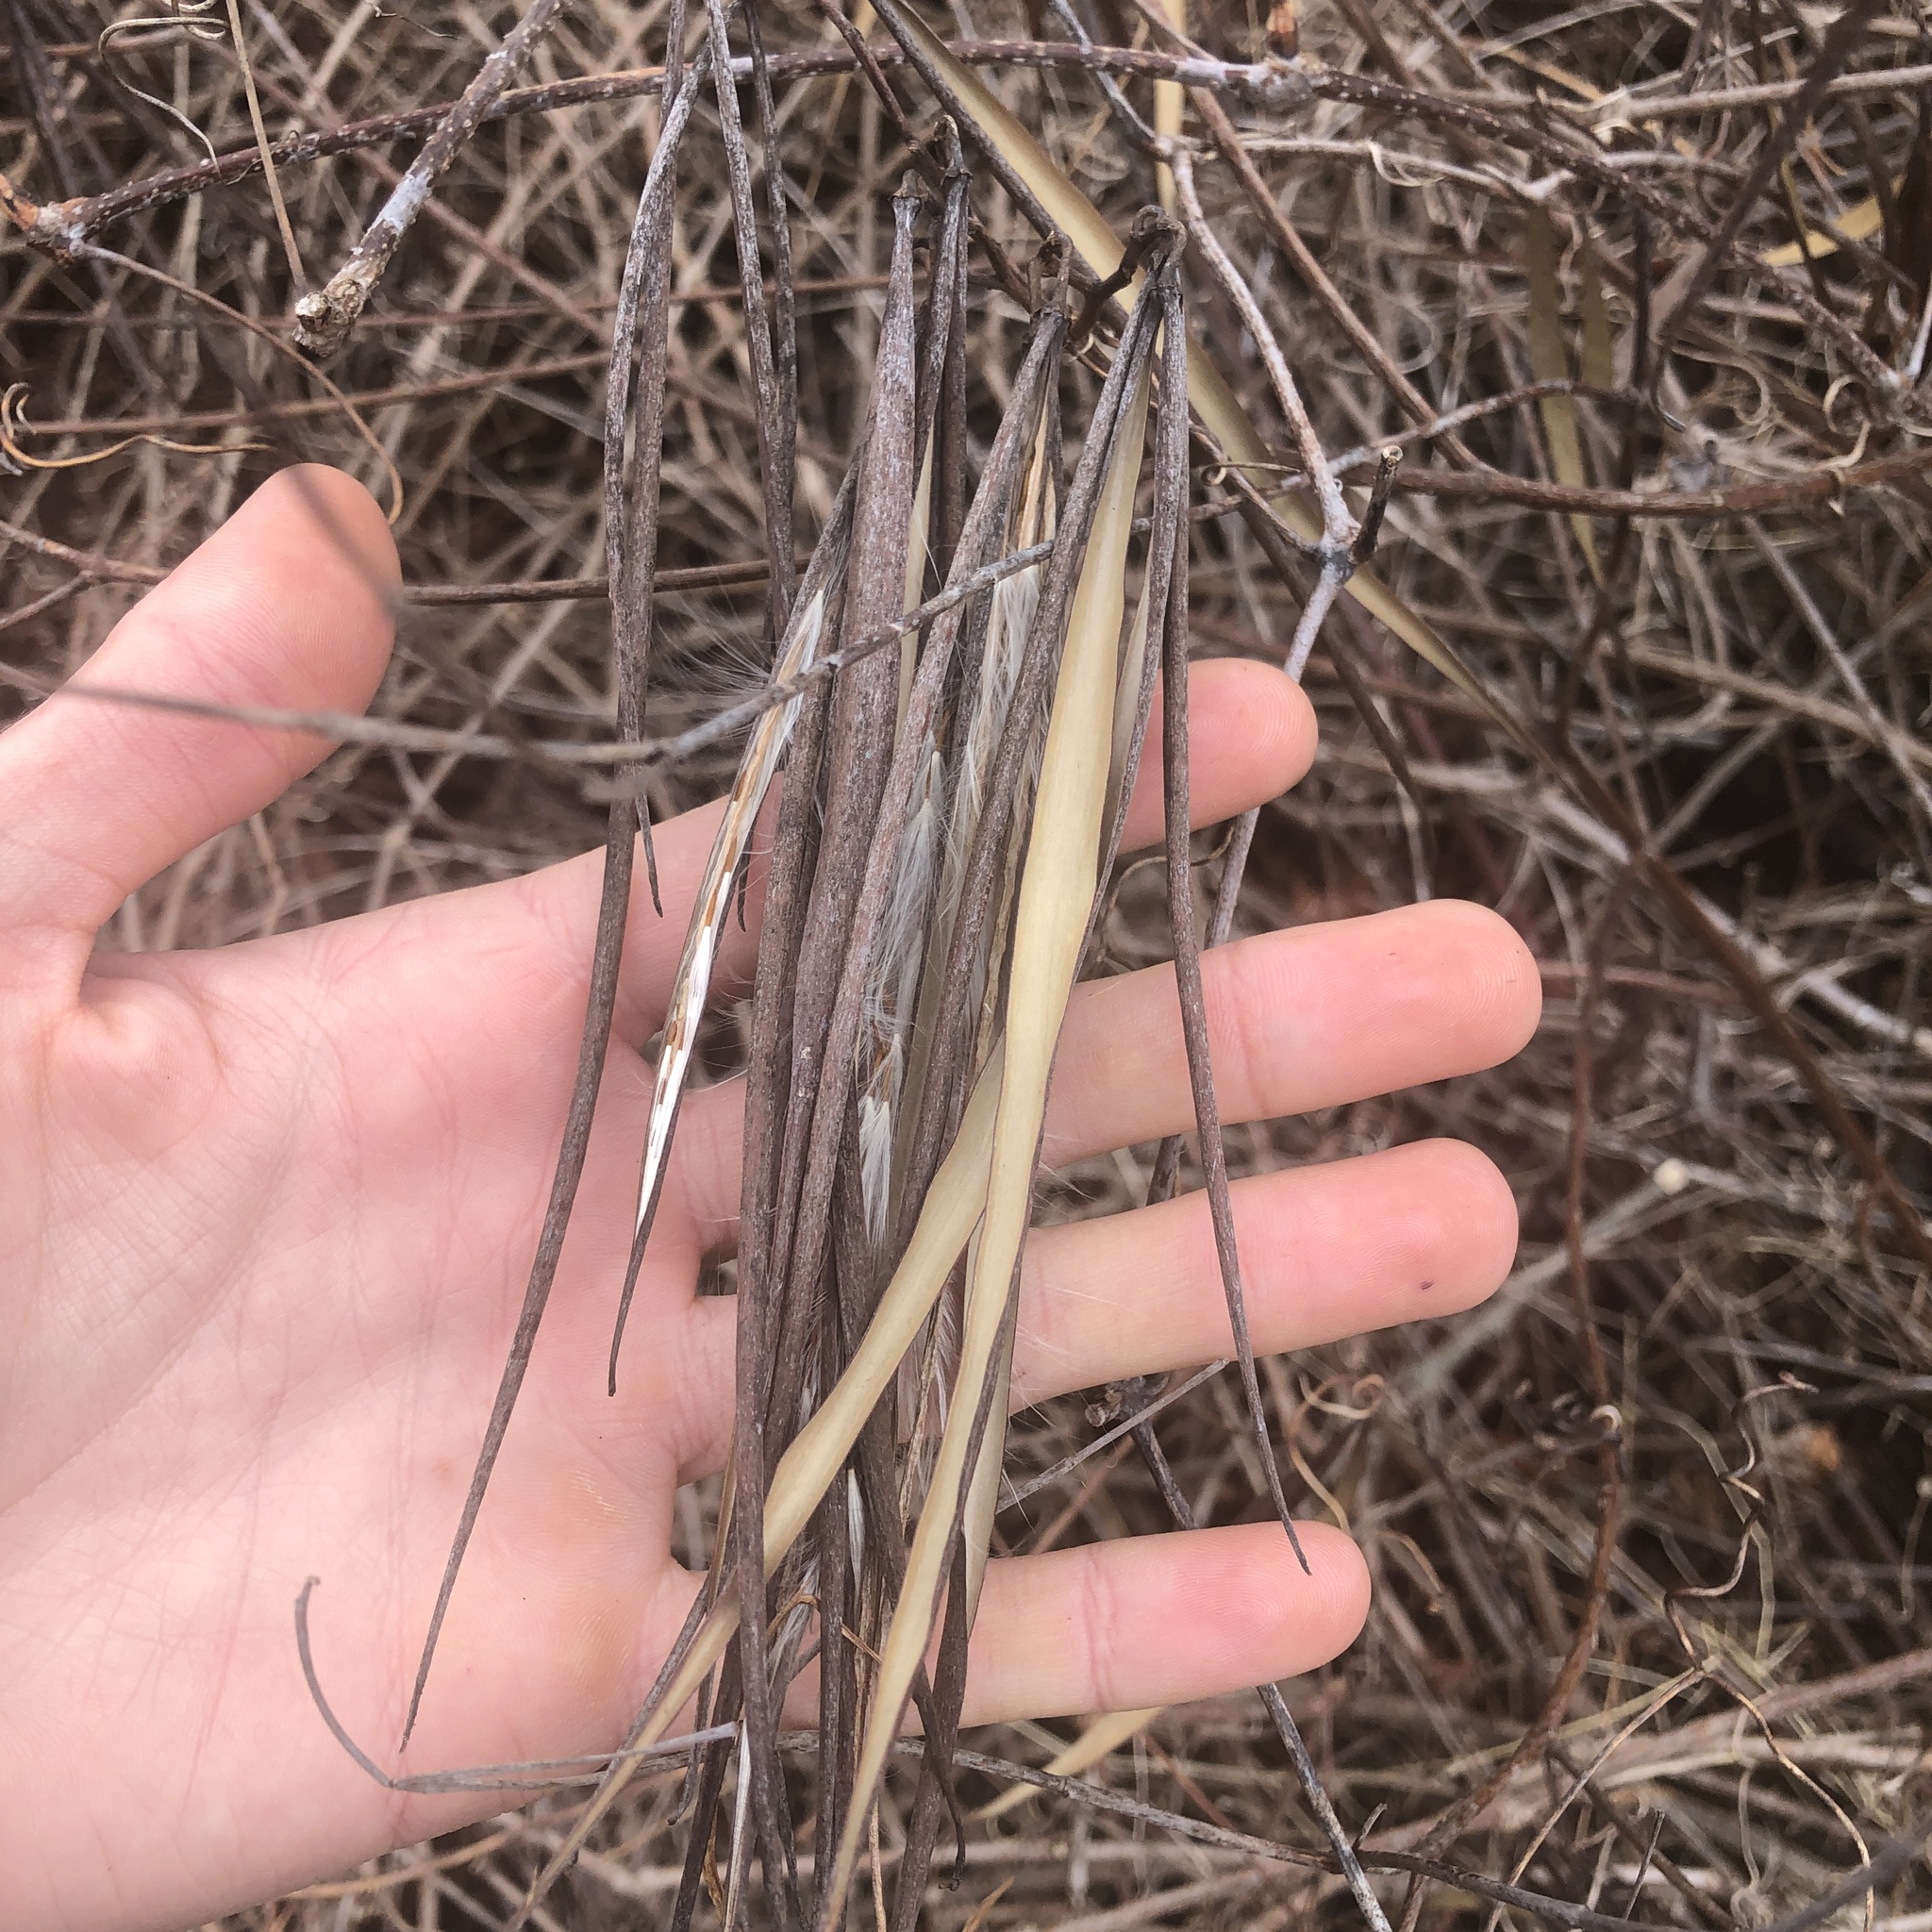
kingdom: Plantae
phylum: Tracheophyta
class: Magnoliopsida
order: Gentianales
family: Apocynaceae
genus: Apocynum
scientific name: Apocynum cannabinum
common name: Hemp dogbane
